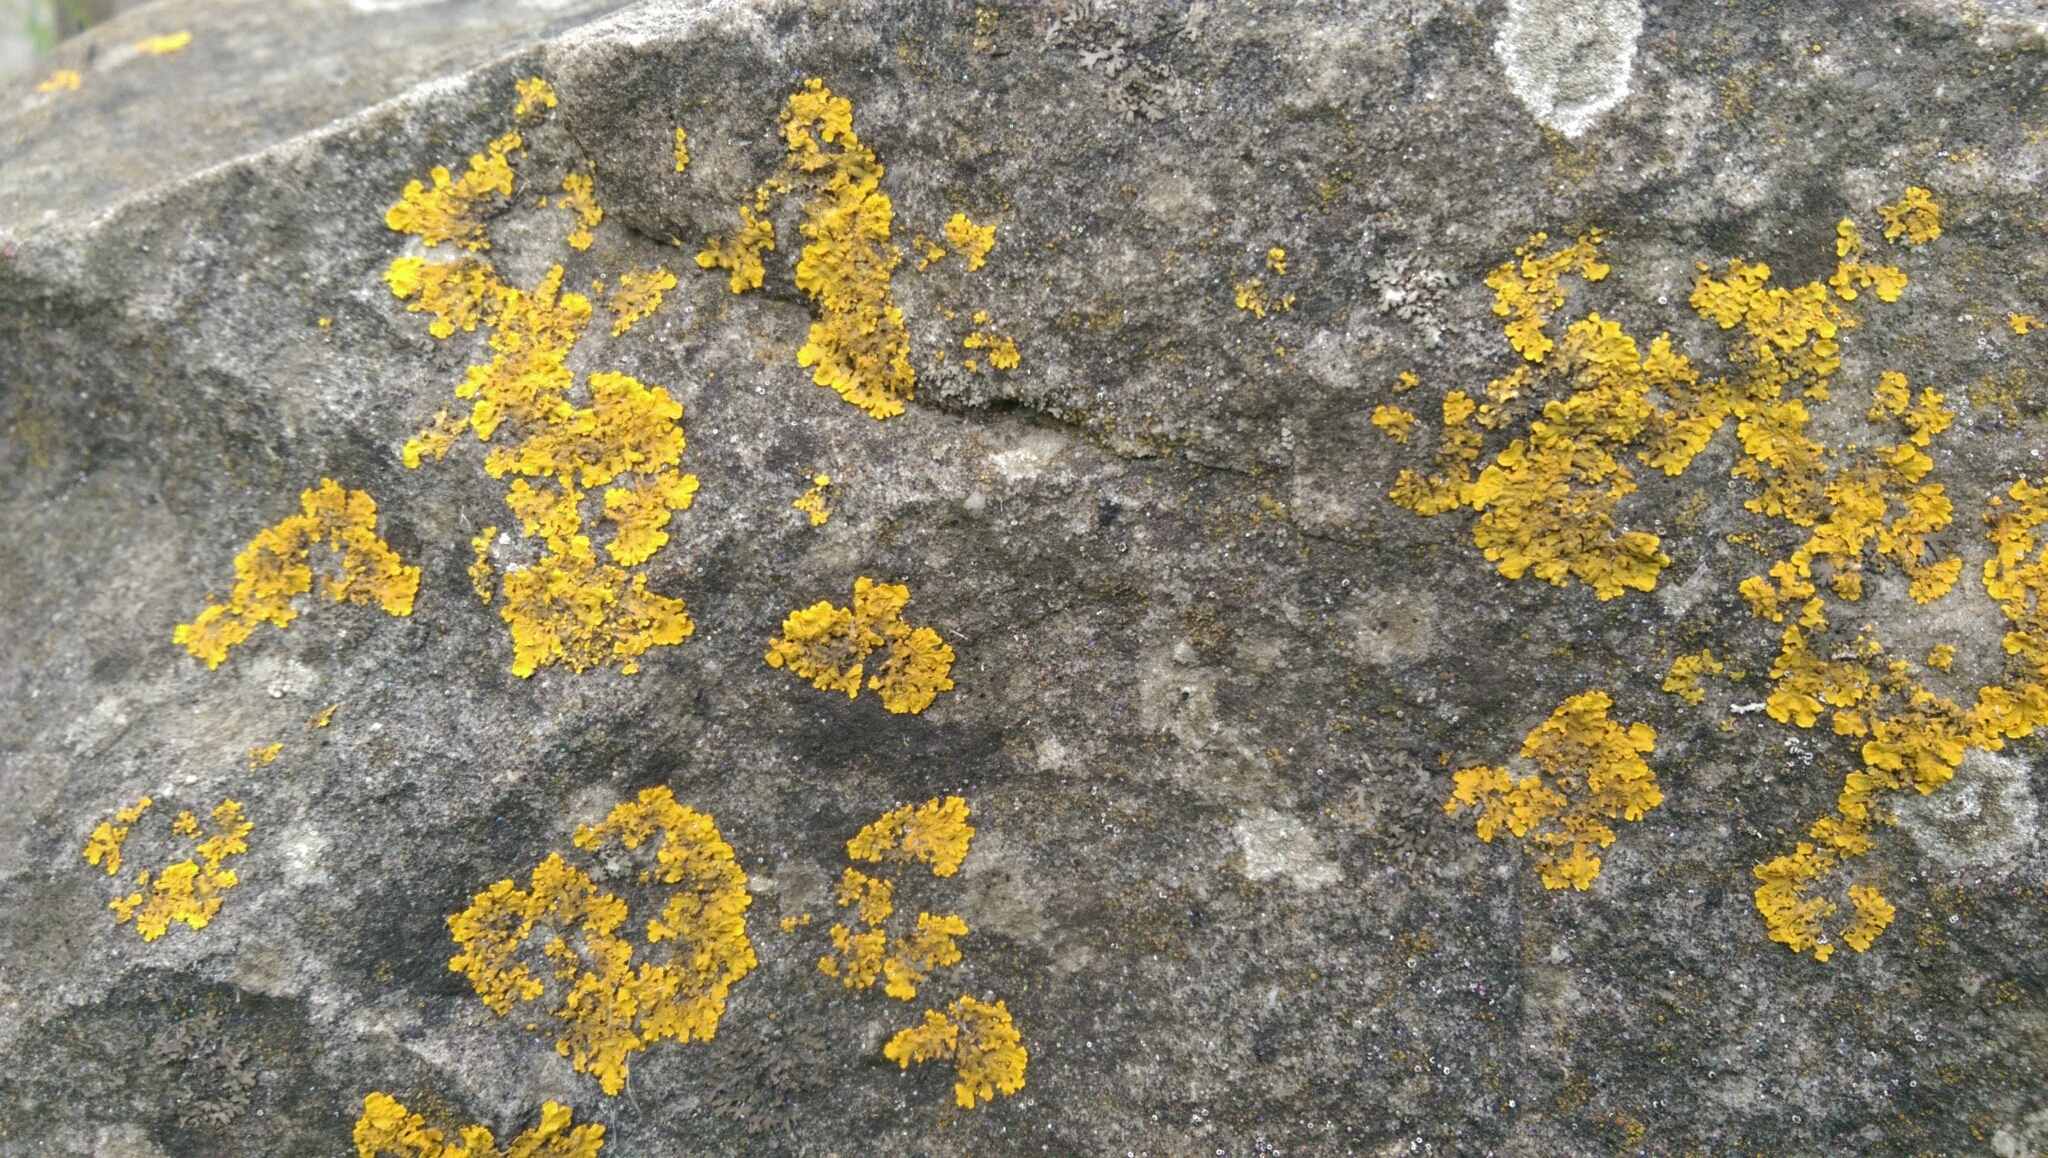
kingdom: Fungi
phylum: Ascomycota
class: Lecanoromycetes
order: Teloschistales
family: Teloschistaceae
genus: Xanthoria
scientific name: Xanthoria parietina
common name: Common orange lichen
